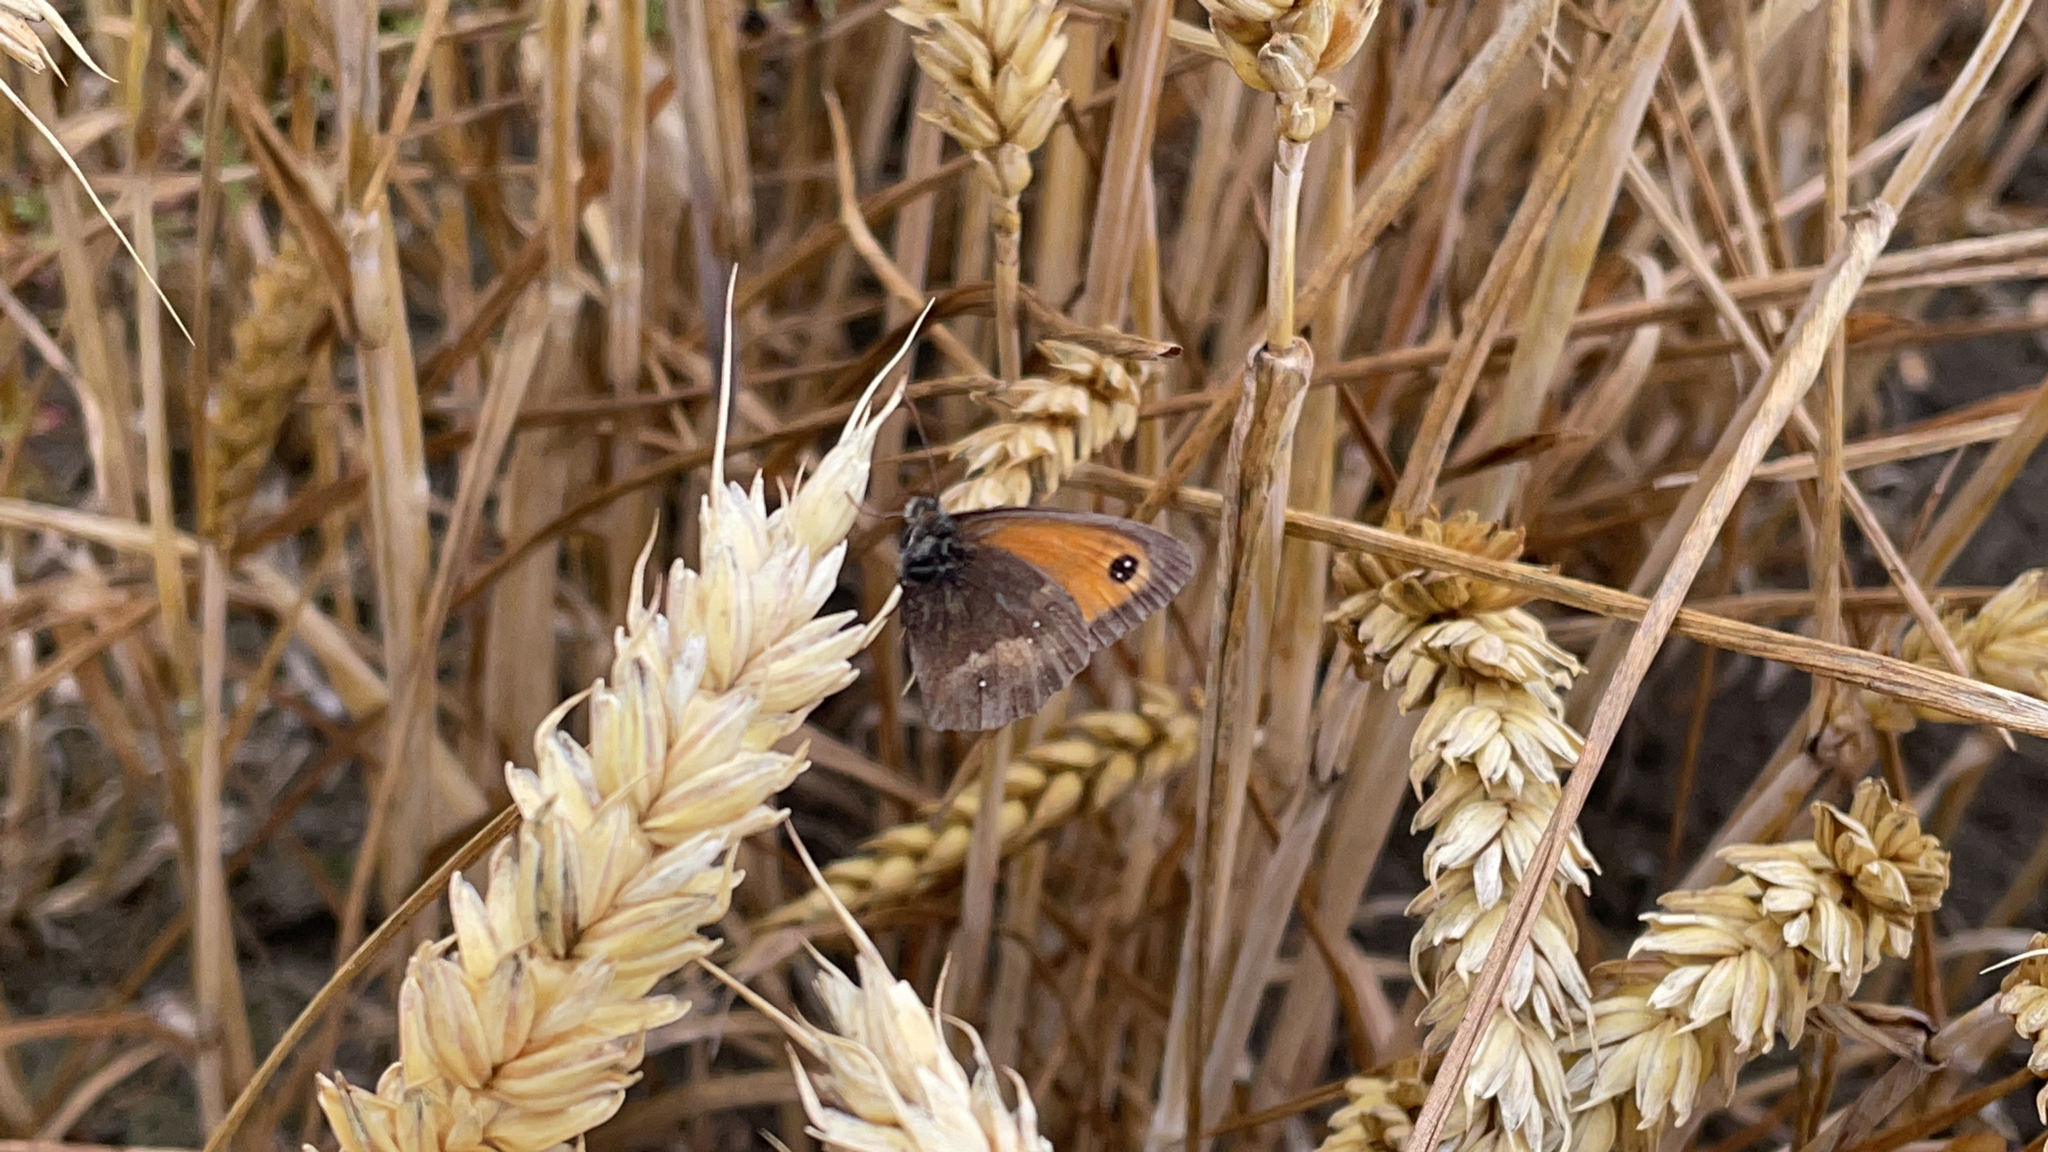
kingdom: Animalia
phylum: Arthropoda
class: Insecta
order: Lepidoptera
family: Nymphalidae
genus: Pyronia
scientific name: Pyronia tithonus
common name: Gatekeeper
